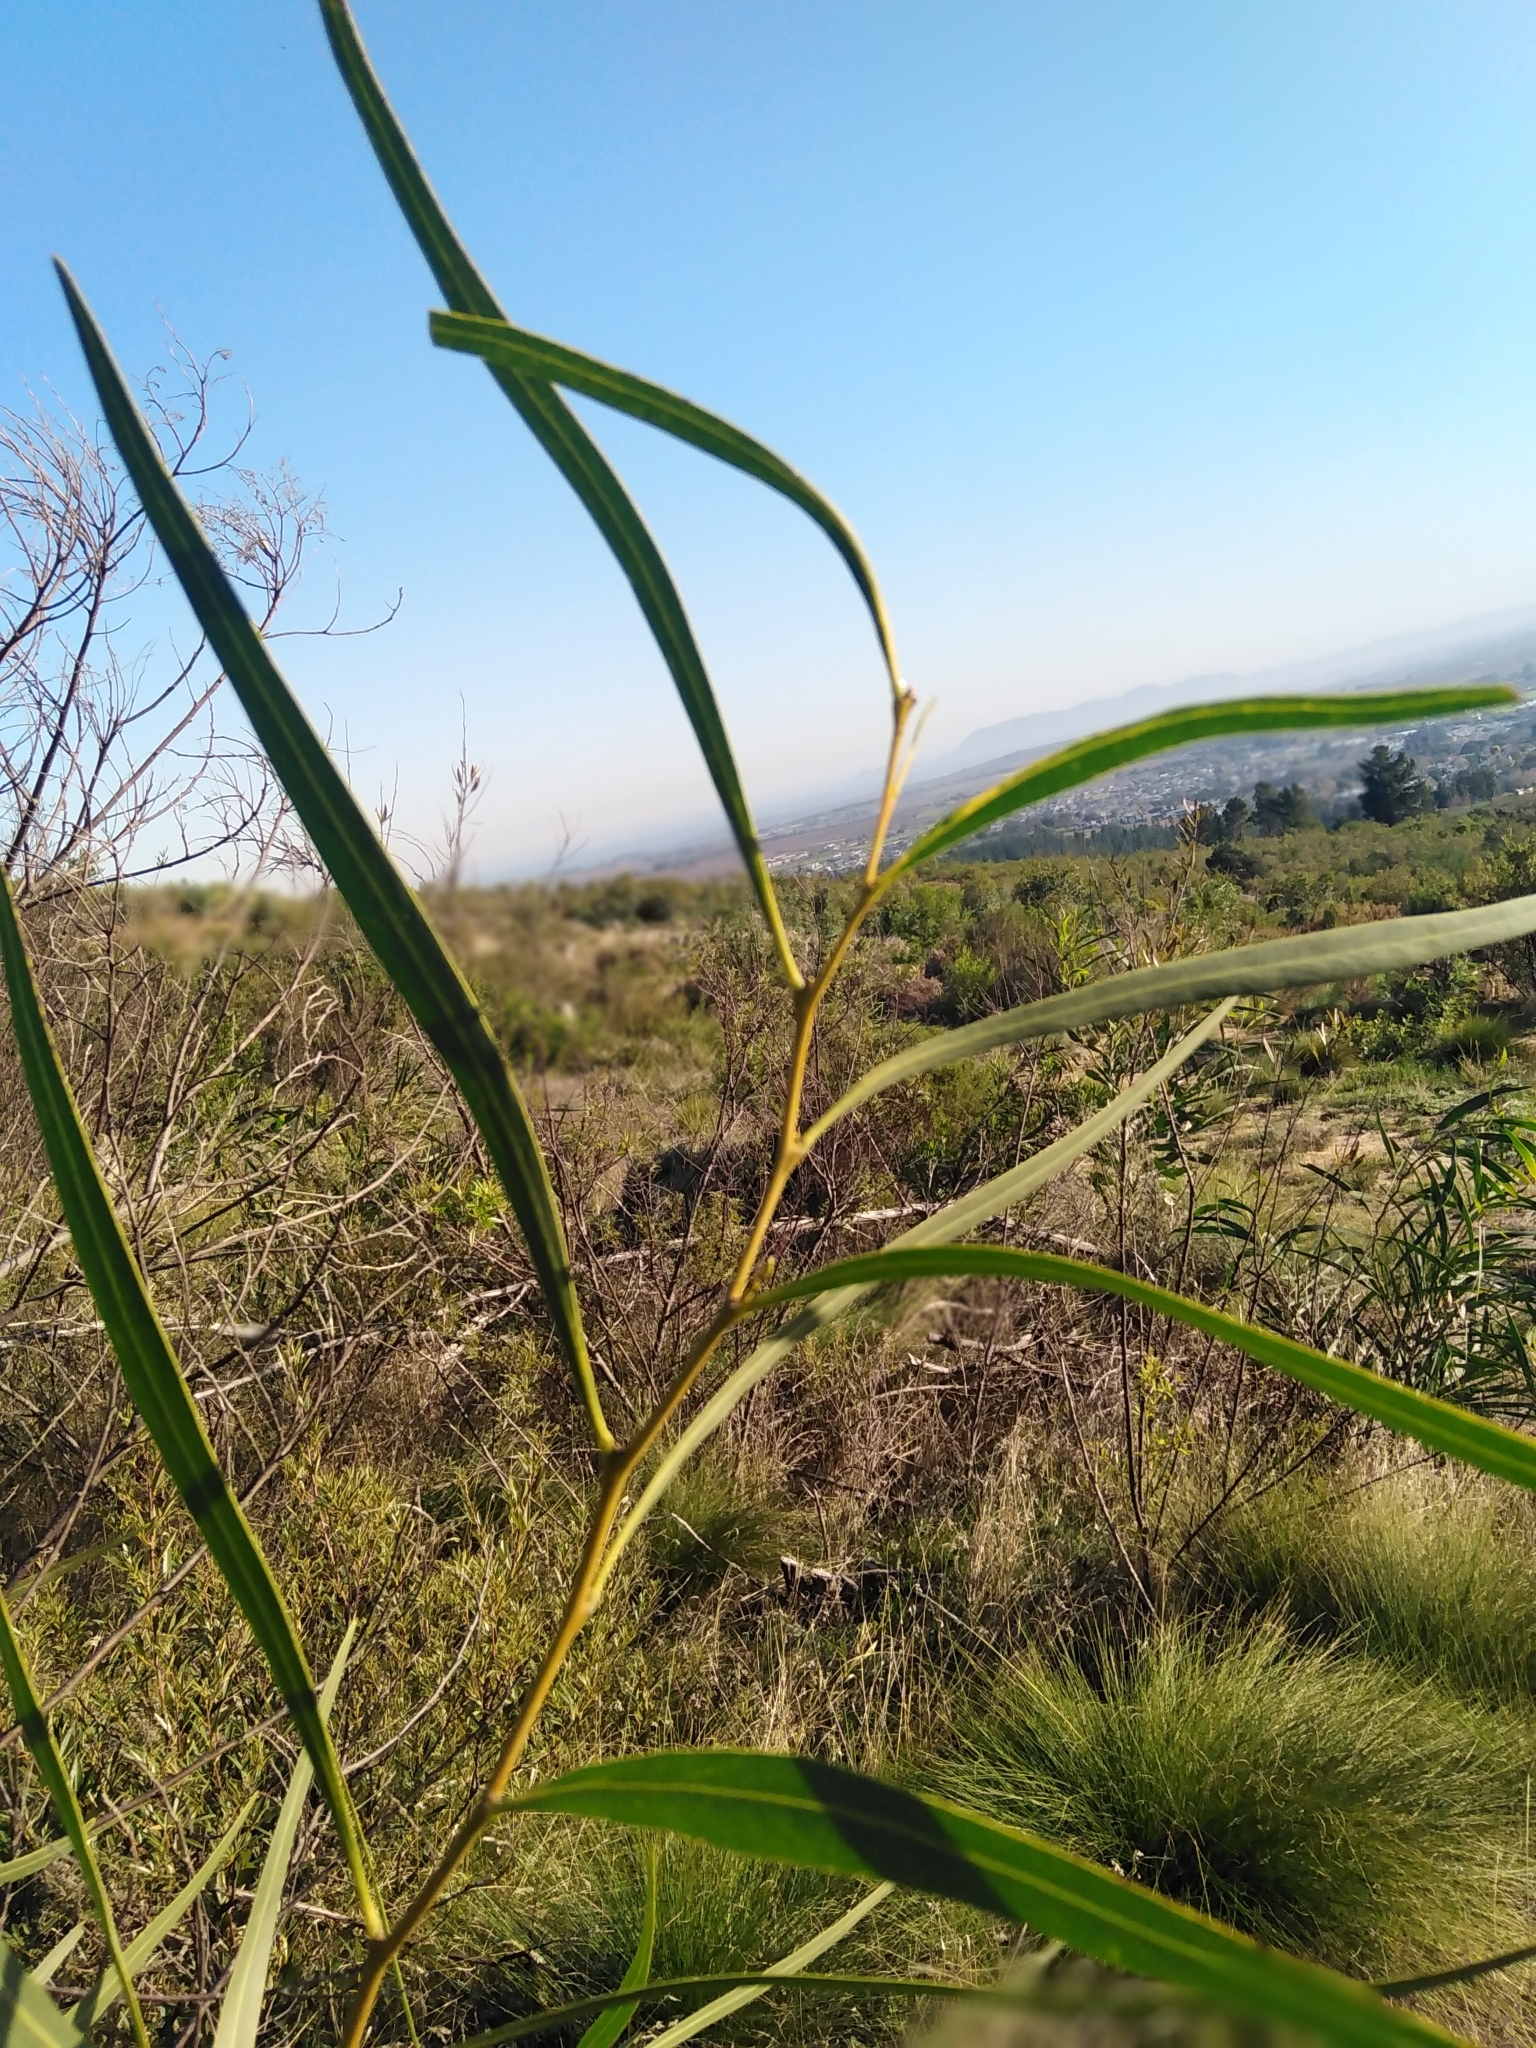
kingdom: Plantae
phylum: Tracheophyta
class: Magnoliopsida
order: Fabales
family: Fabaceae
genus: Acacia
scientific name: Acacia saligna
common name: Orange wattle
